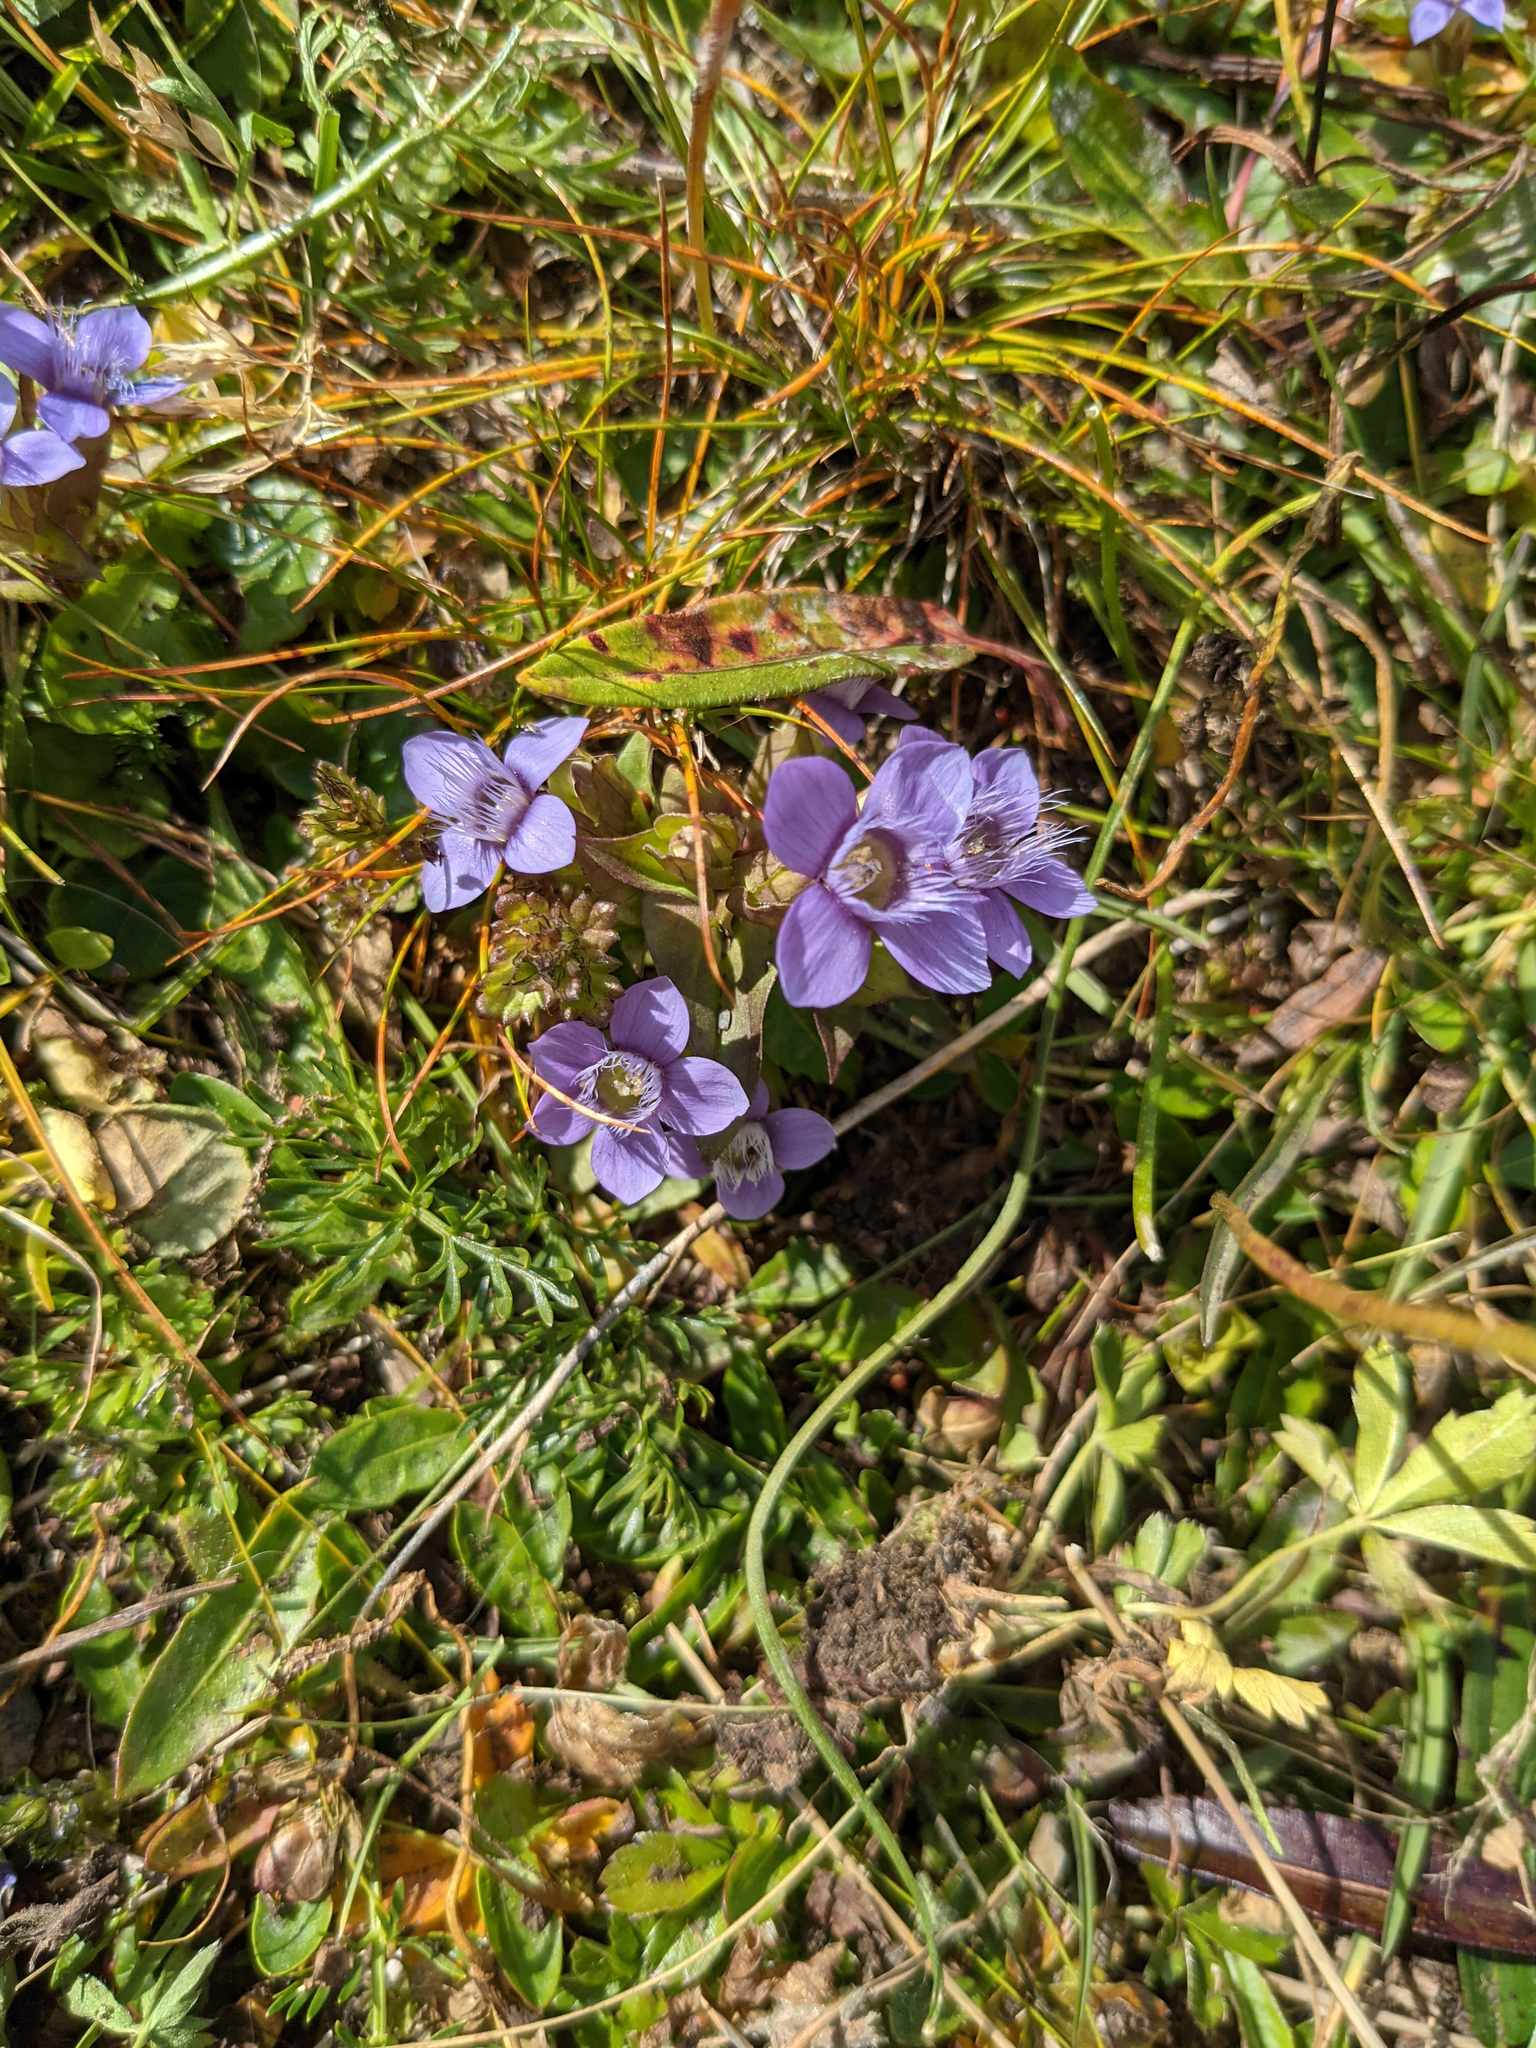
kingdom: Plantae
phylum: Tracheophyta
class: Magnoliopsida
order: Gentianales
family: Gentianaceae
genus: Gentianella
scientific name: Gentianella campestris
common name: Field gentian
